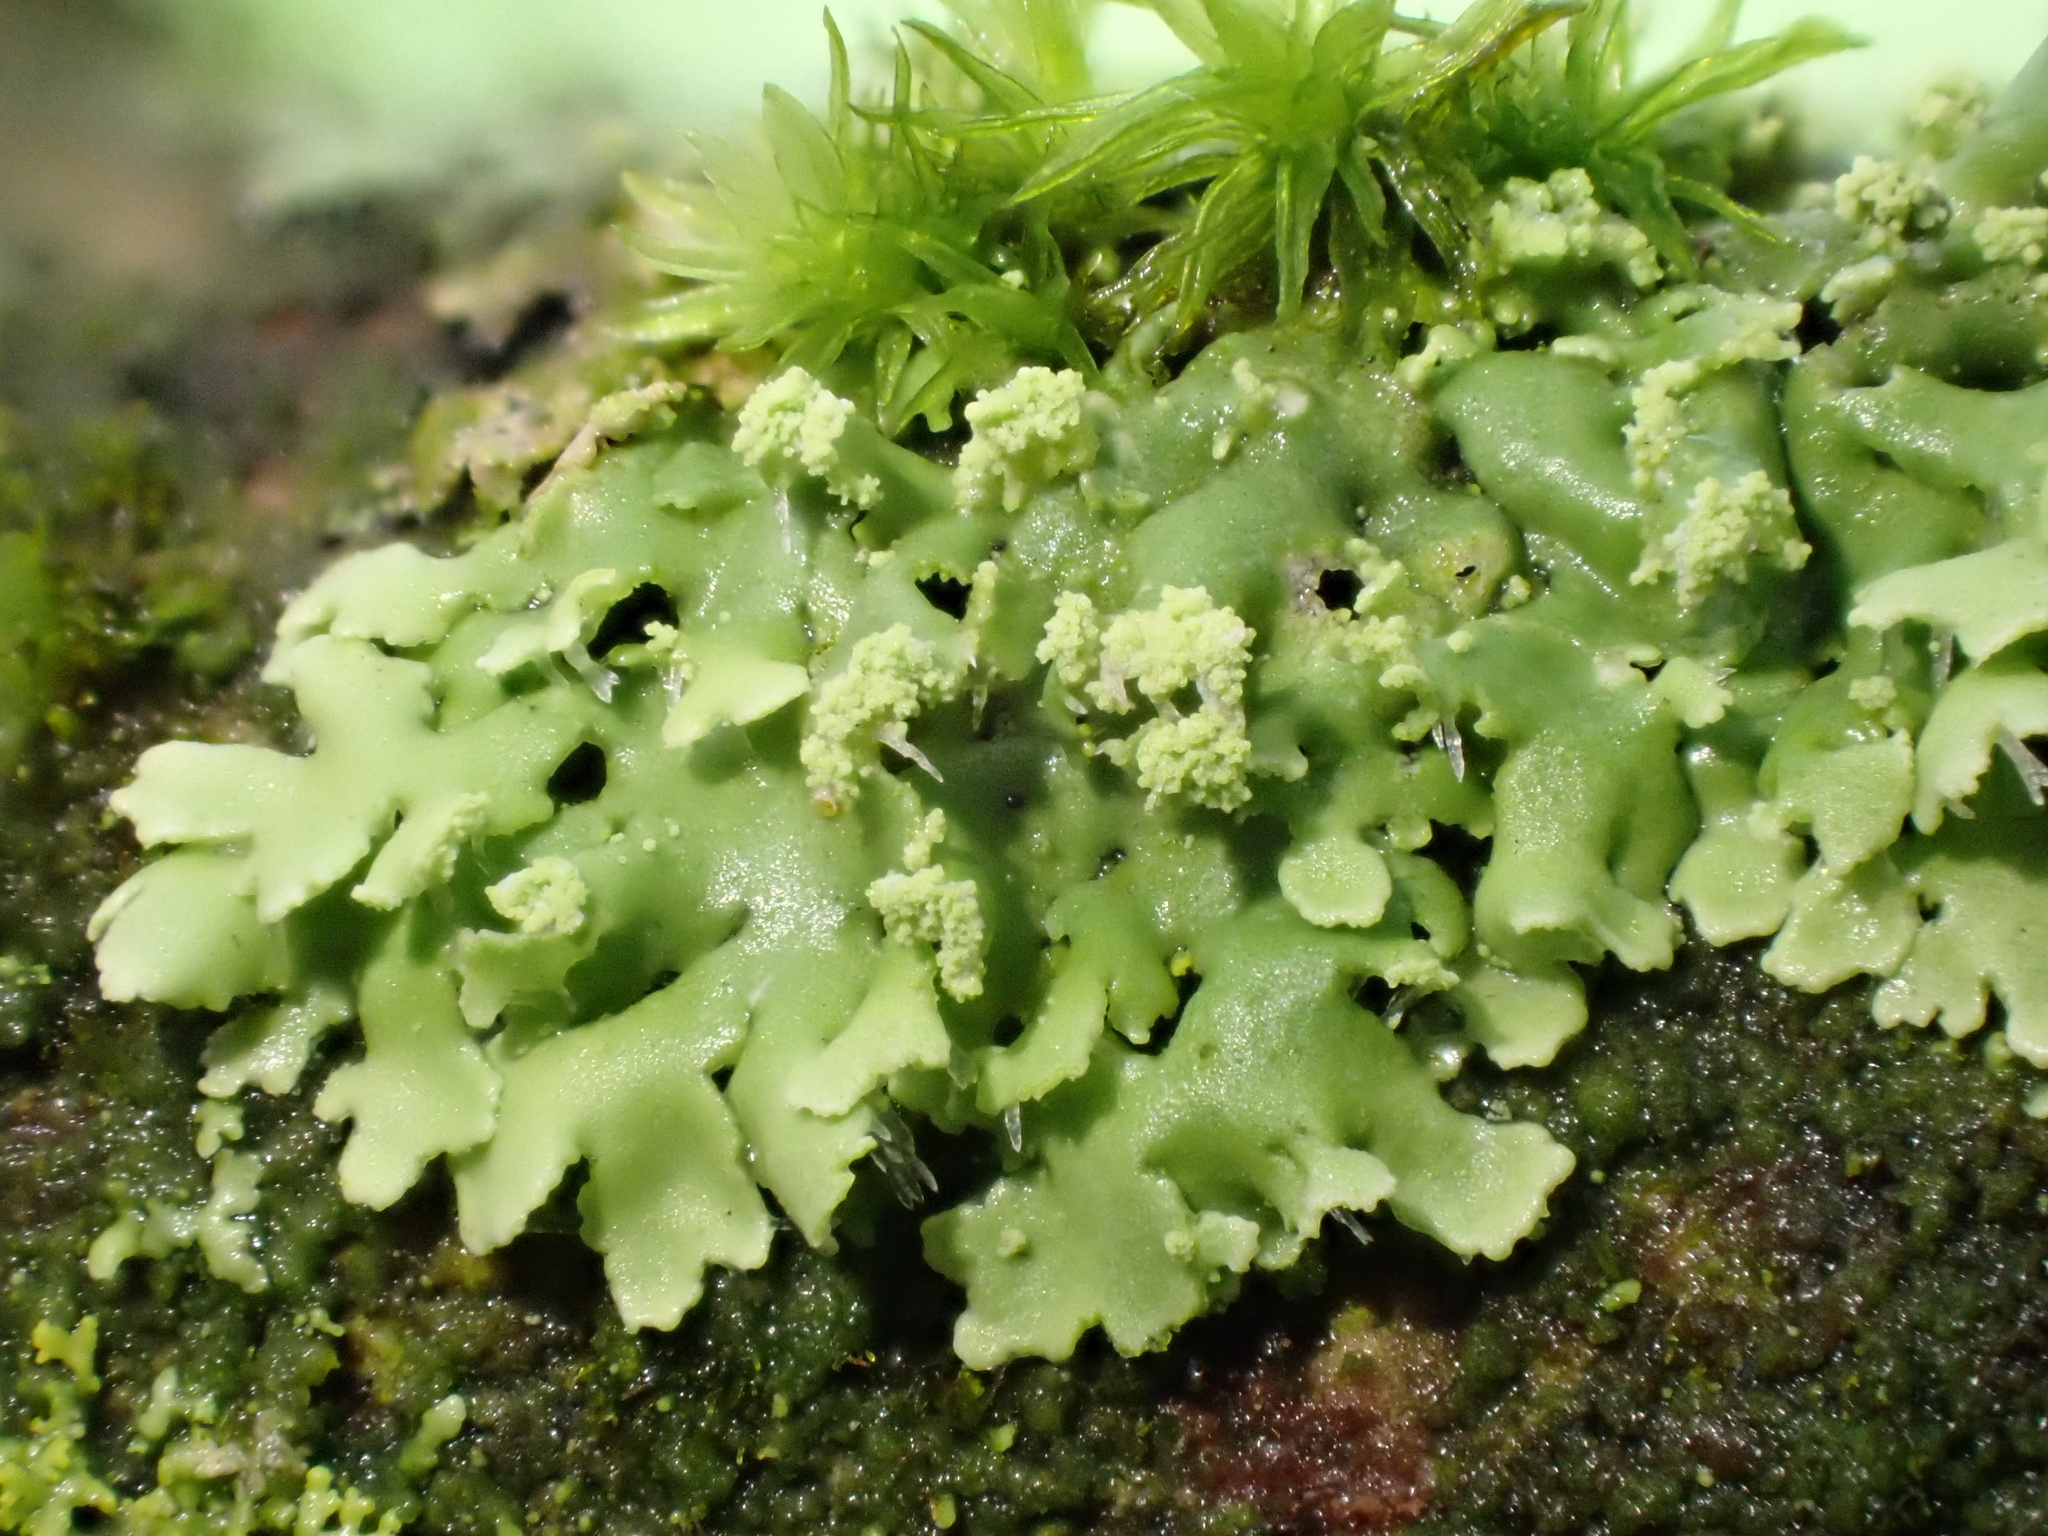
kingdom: Fungi
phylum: Ascomycota
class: Lecanoromycetes
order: Caliciales
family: Physciaceae
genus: Physciella
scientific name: Physciella chloantha
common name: Cryptic rosette lichen
